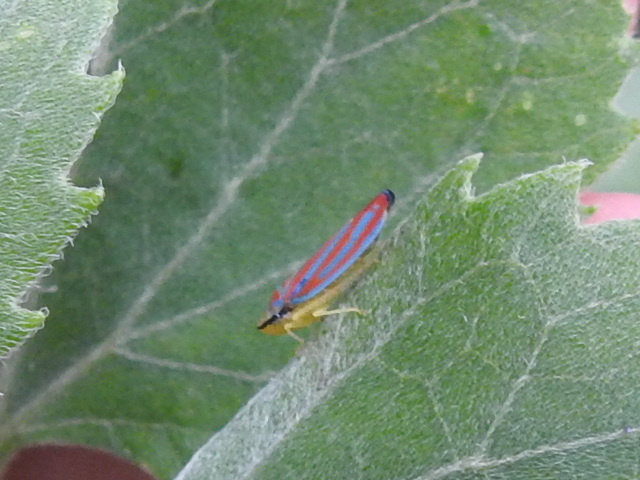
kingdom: Animalia
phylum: Arthropoda
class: Insecta
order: Hemiptera
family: Cicadellidae
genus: Graphocephala
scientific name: Graphocephala coccinea
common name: Candy-striped leafhopper
